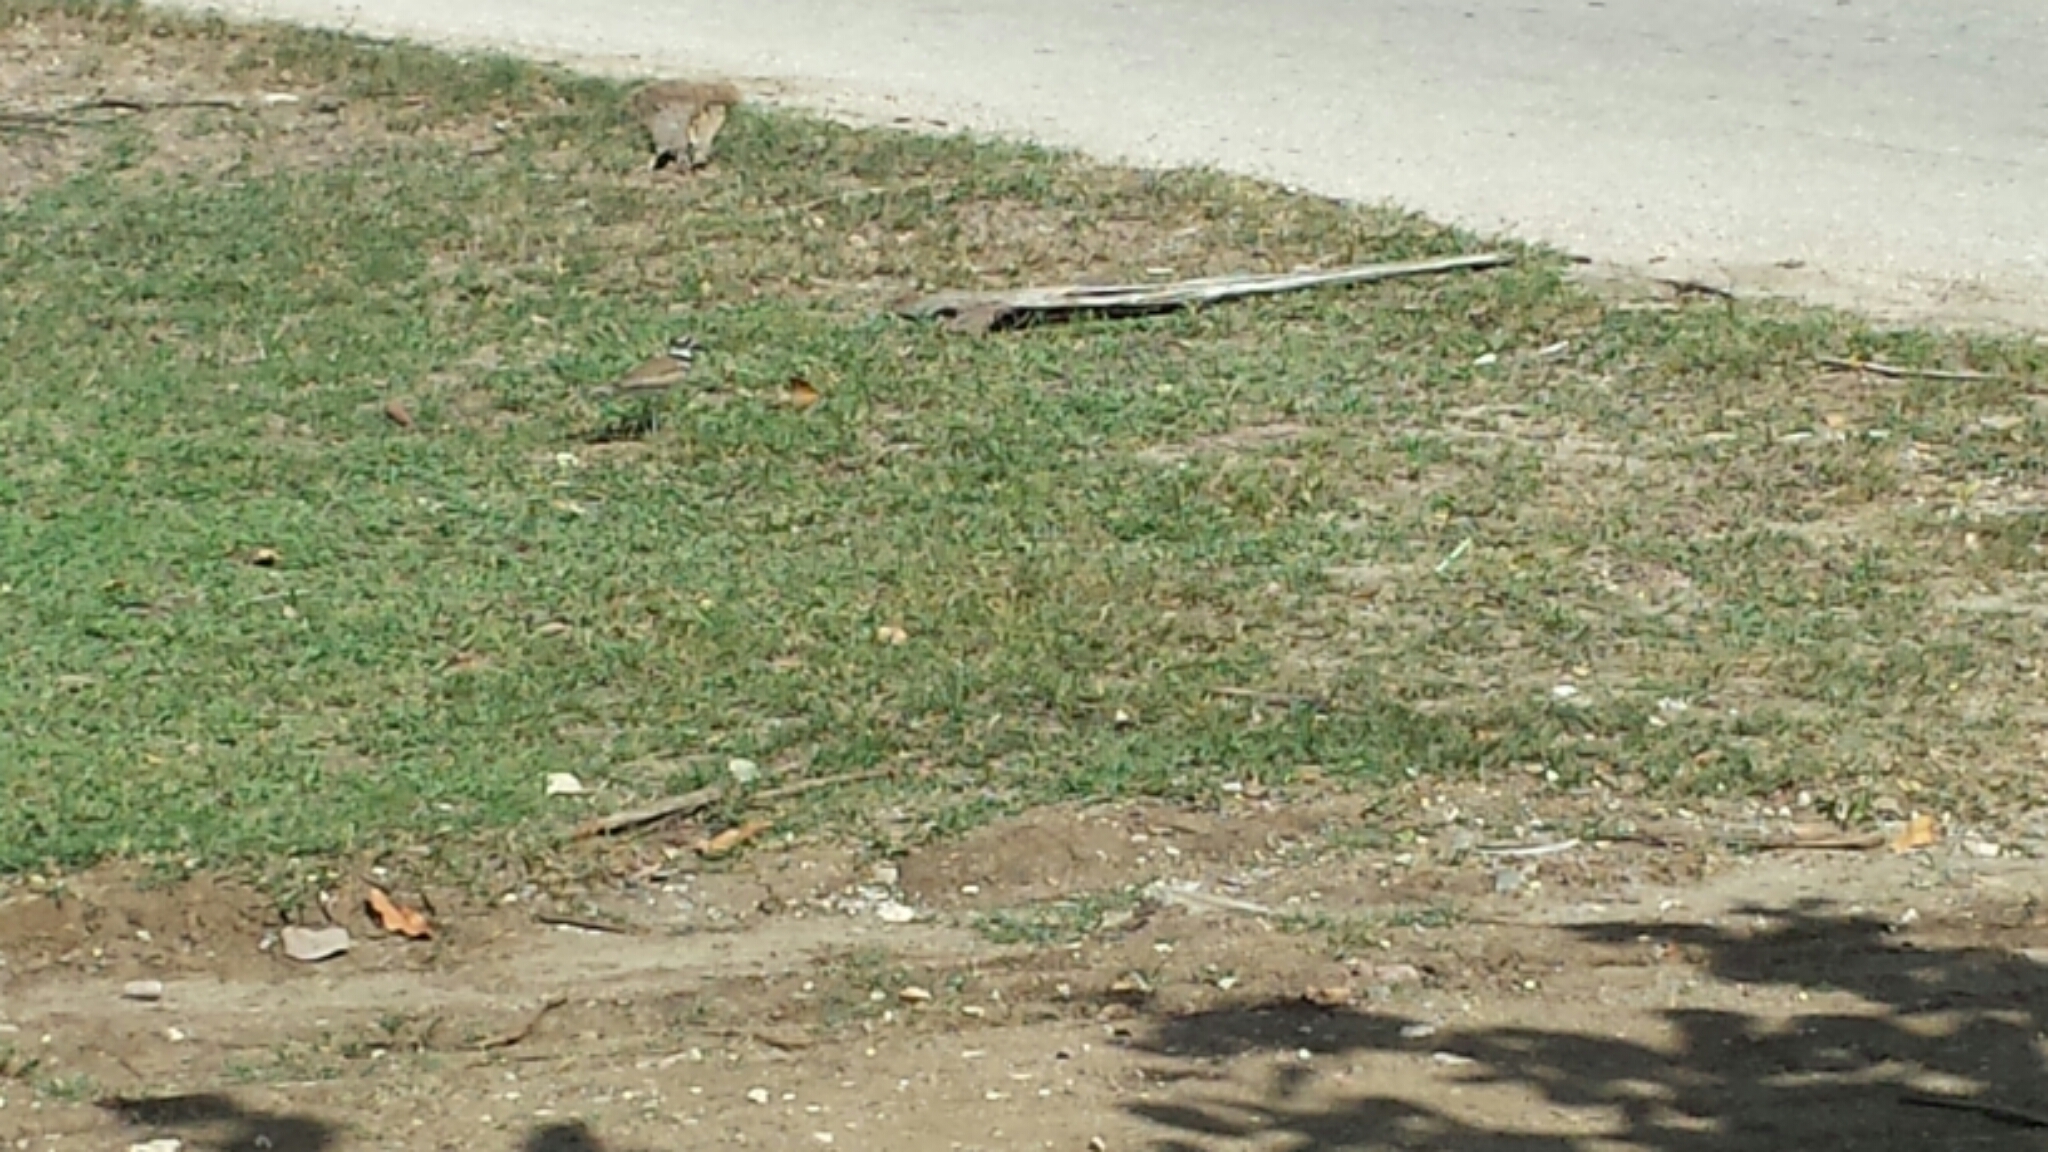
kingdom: Animalia
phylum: Chordata
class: Aves
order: Charadriiformes
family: Charadriidae
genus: Charadrius
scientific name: Charadrius vociferus
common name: Killdeer
